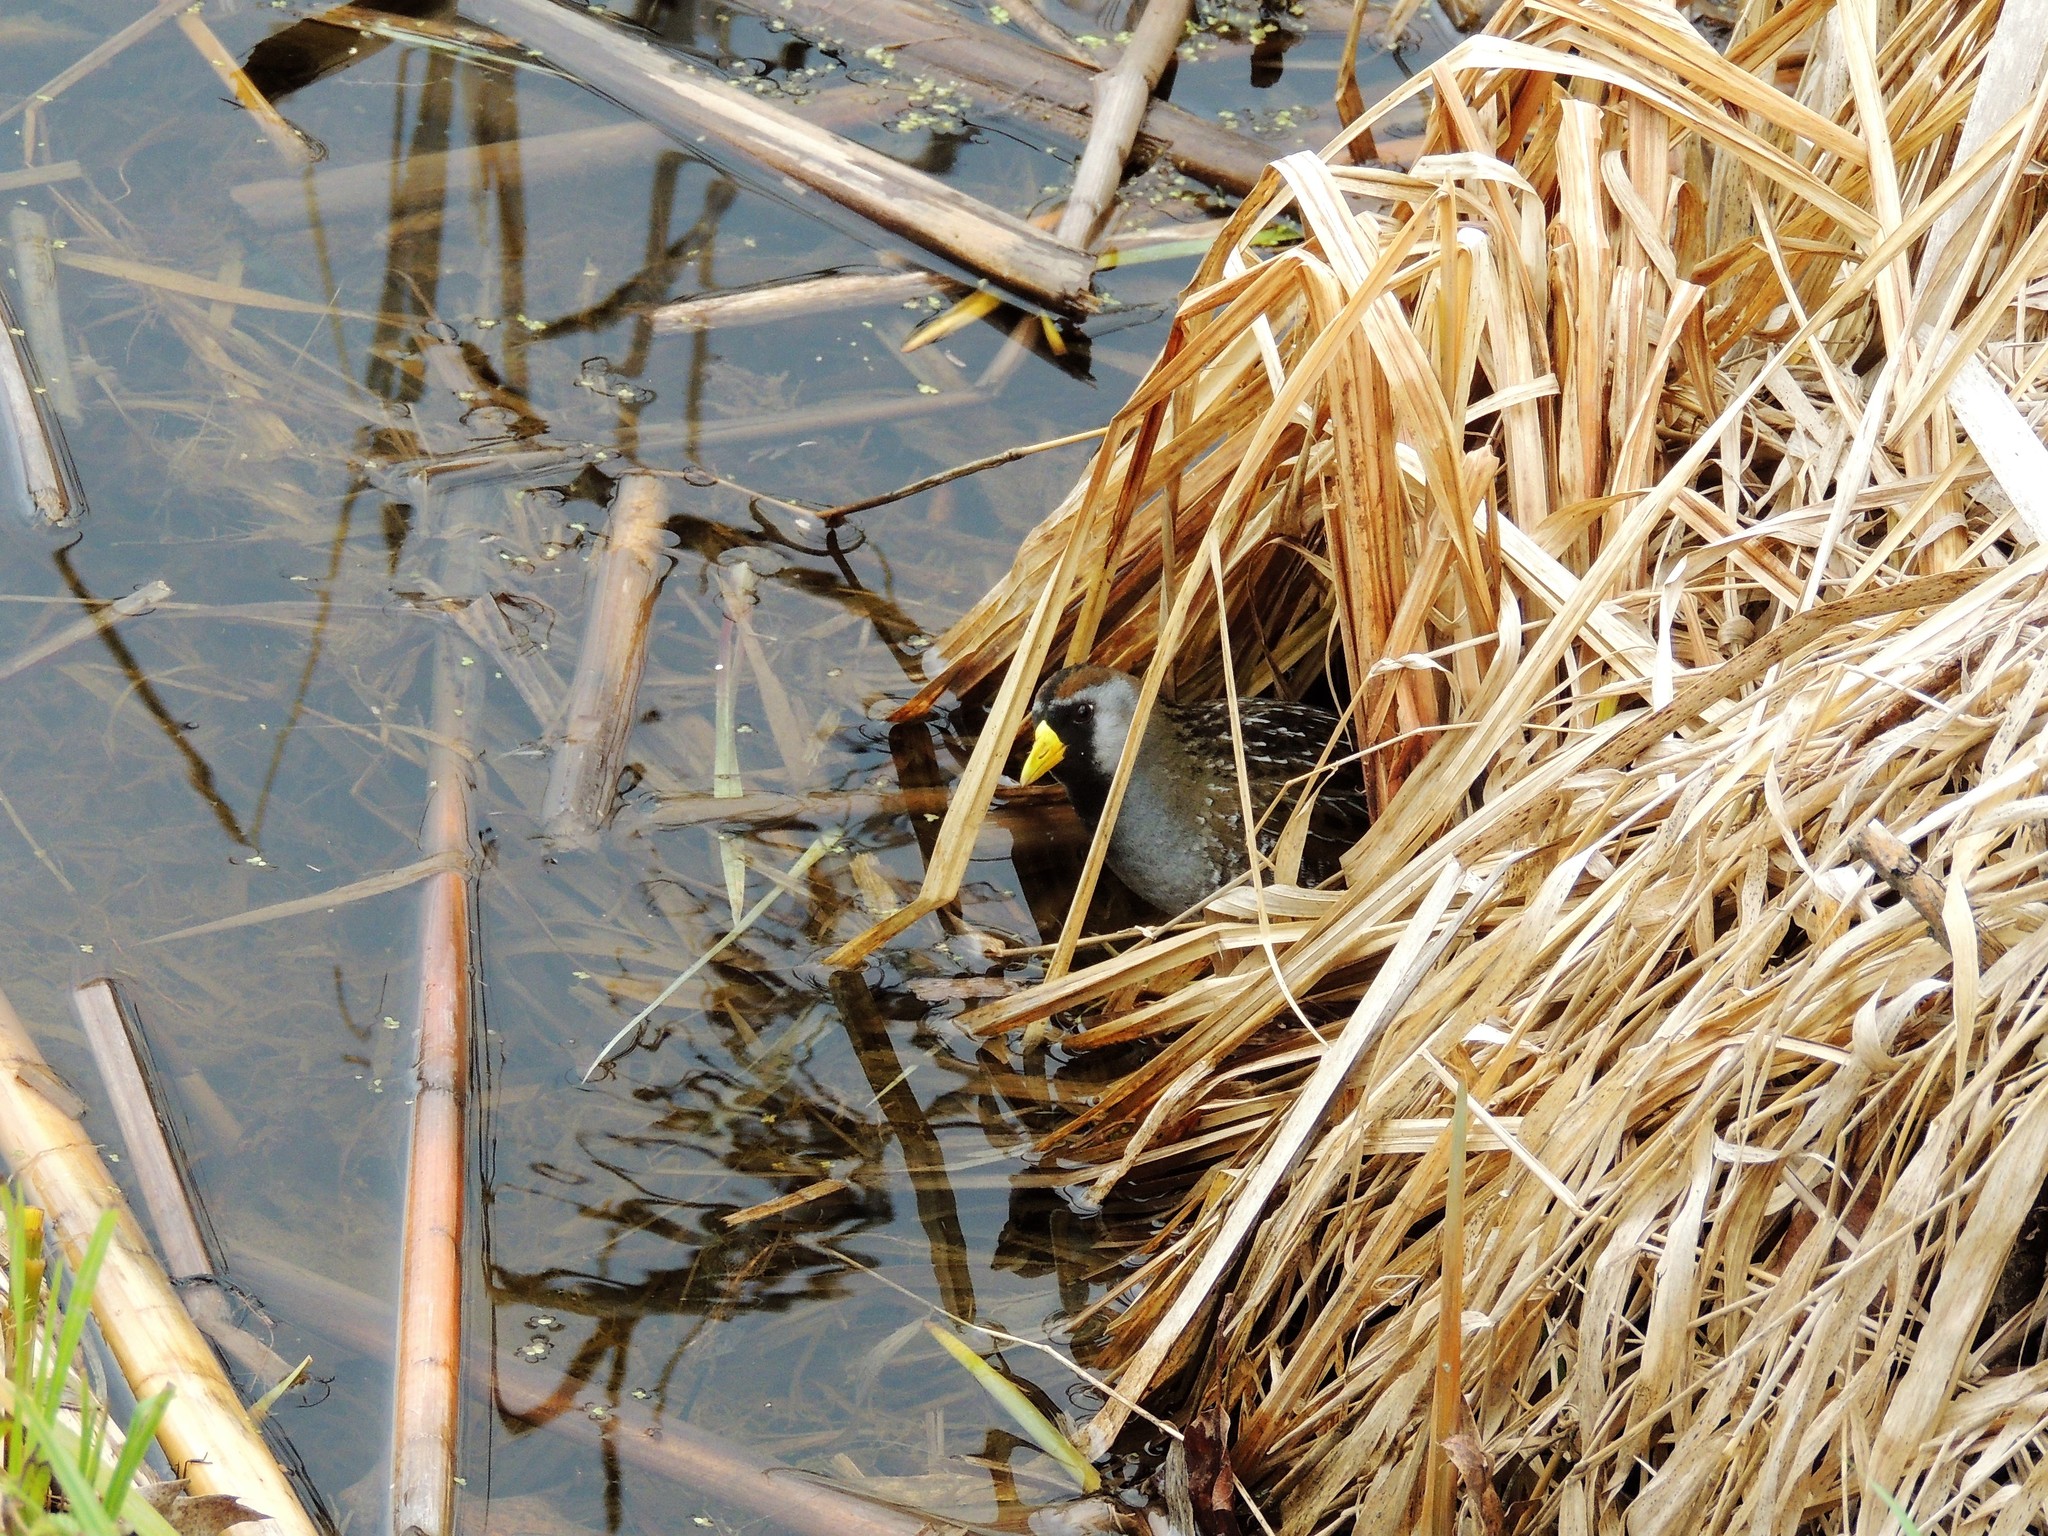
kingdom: Animalia
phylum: Chordata
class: Aves
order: Gruiformes
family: Rallidae
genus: Porzana
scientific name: Porzana carolina
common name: Sora
